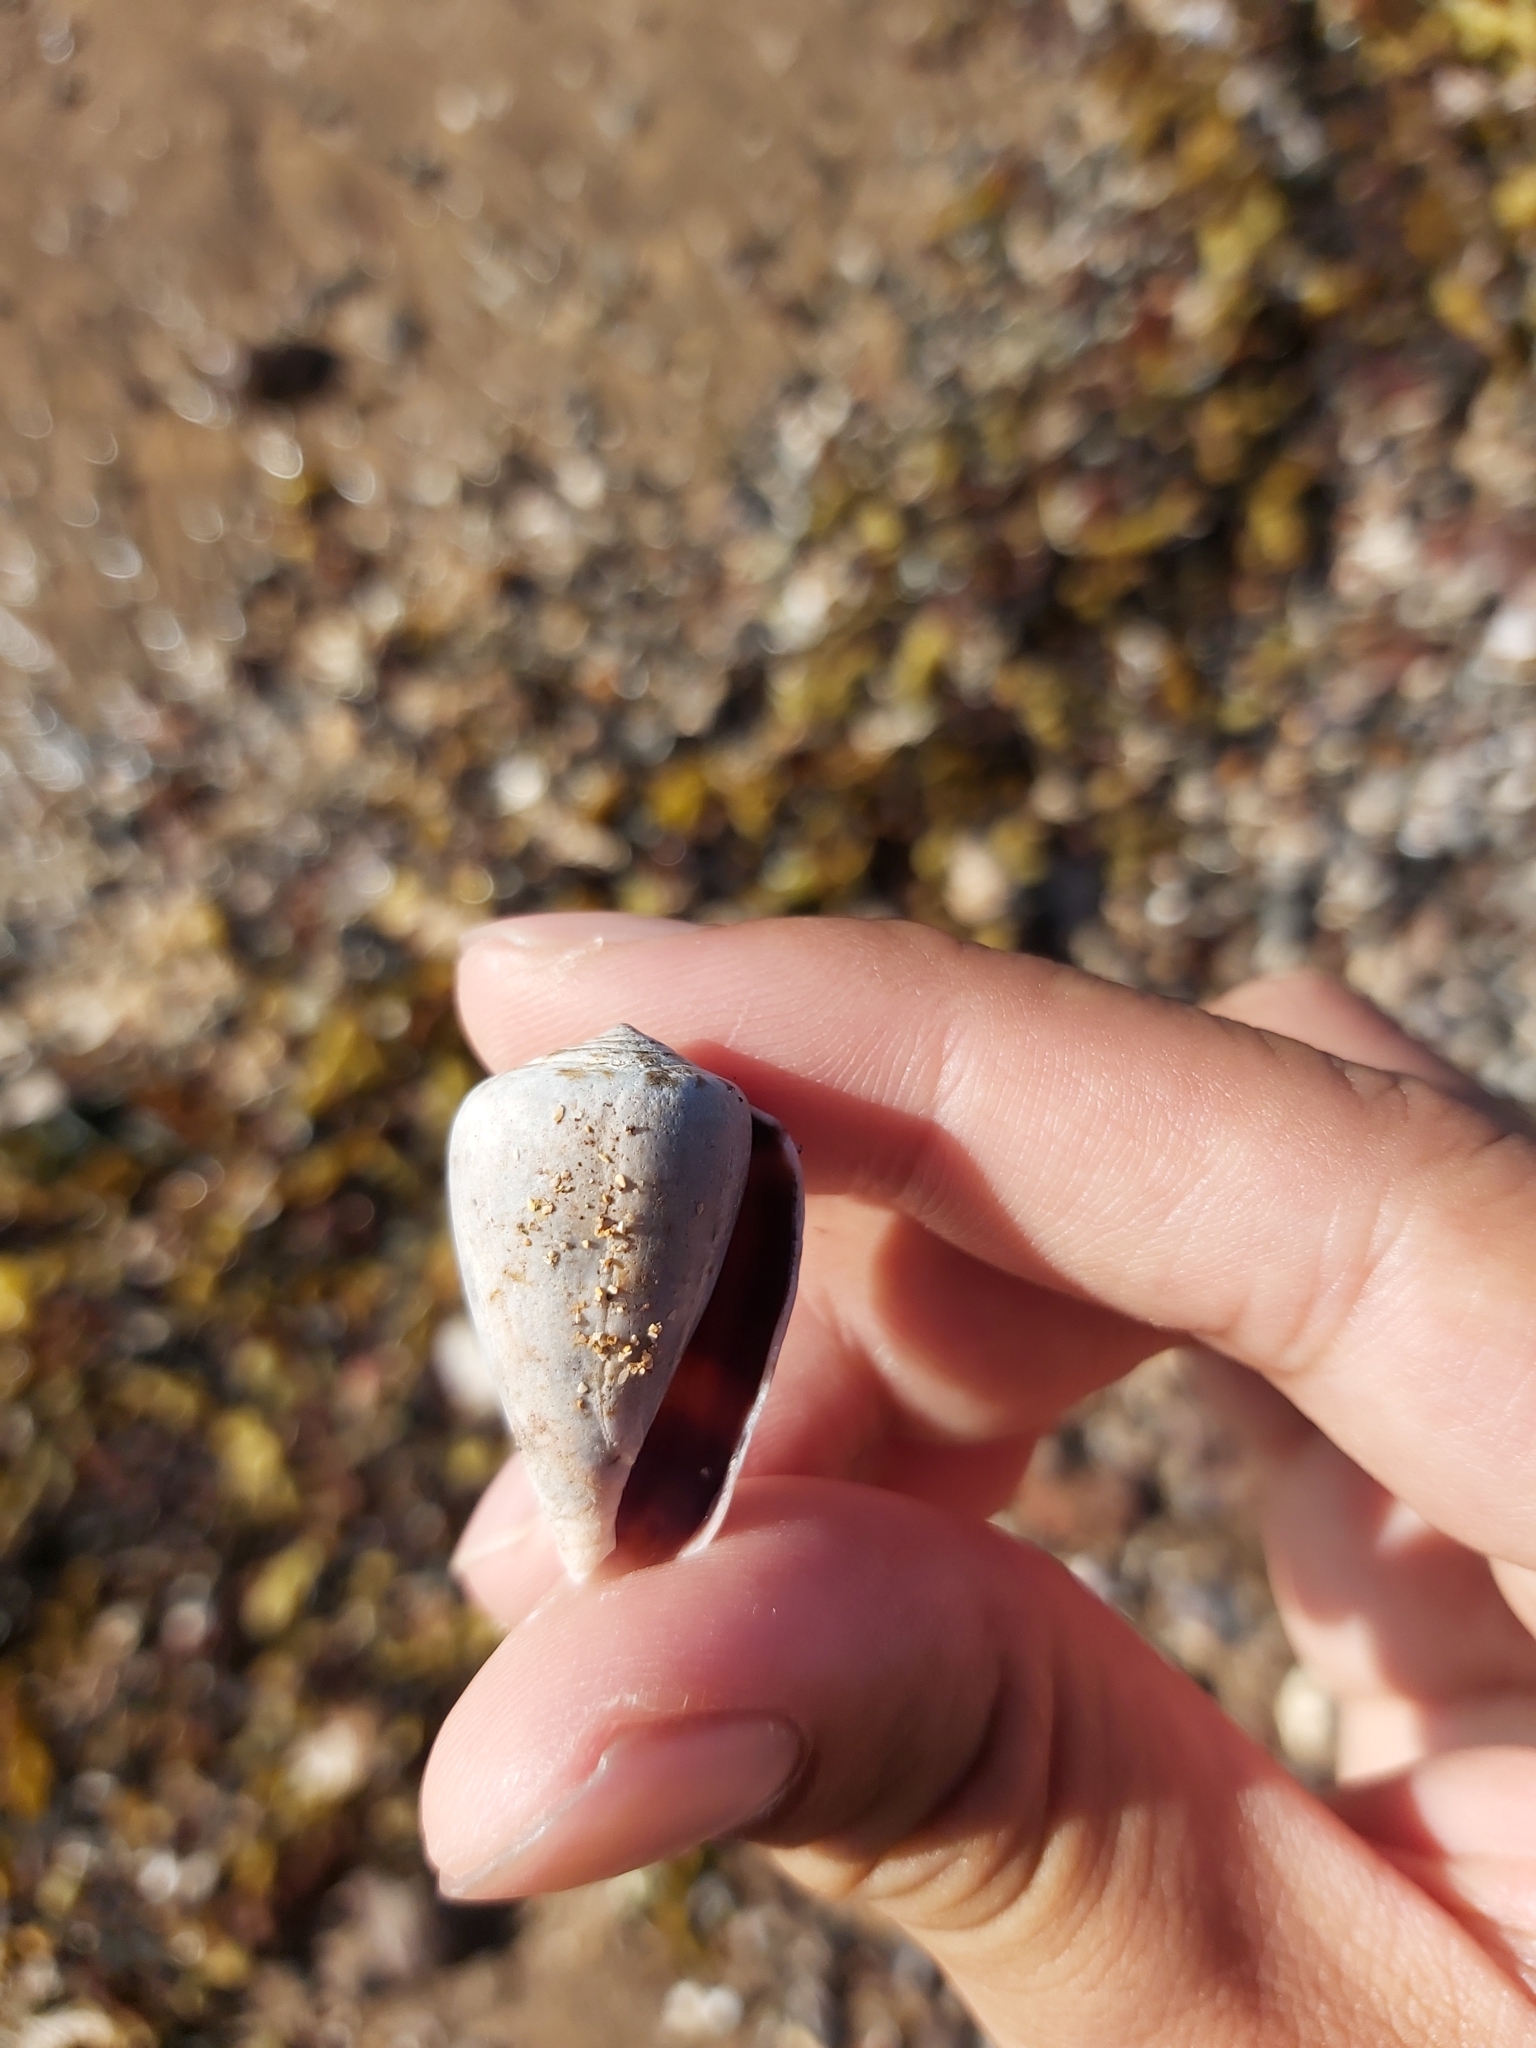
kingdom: Animalia
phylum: Mollusca
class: Gastropoda
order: Neogastropoda
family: Conidae
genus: Conus
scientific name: Conus papilliferus
